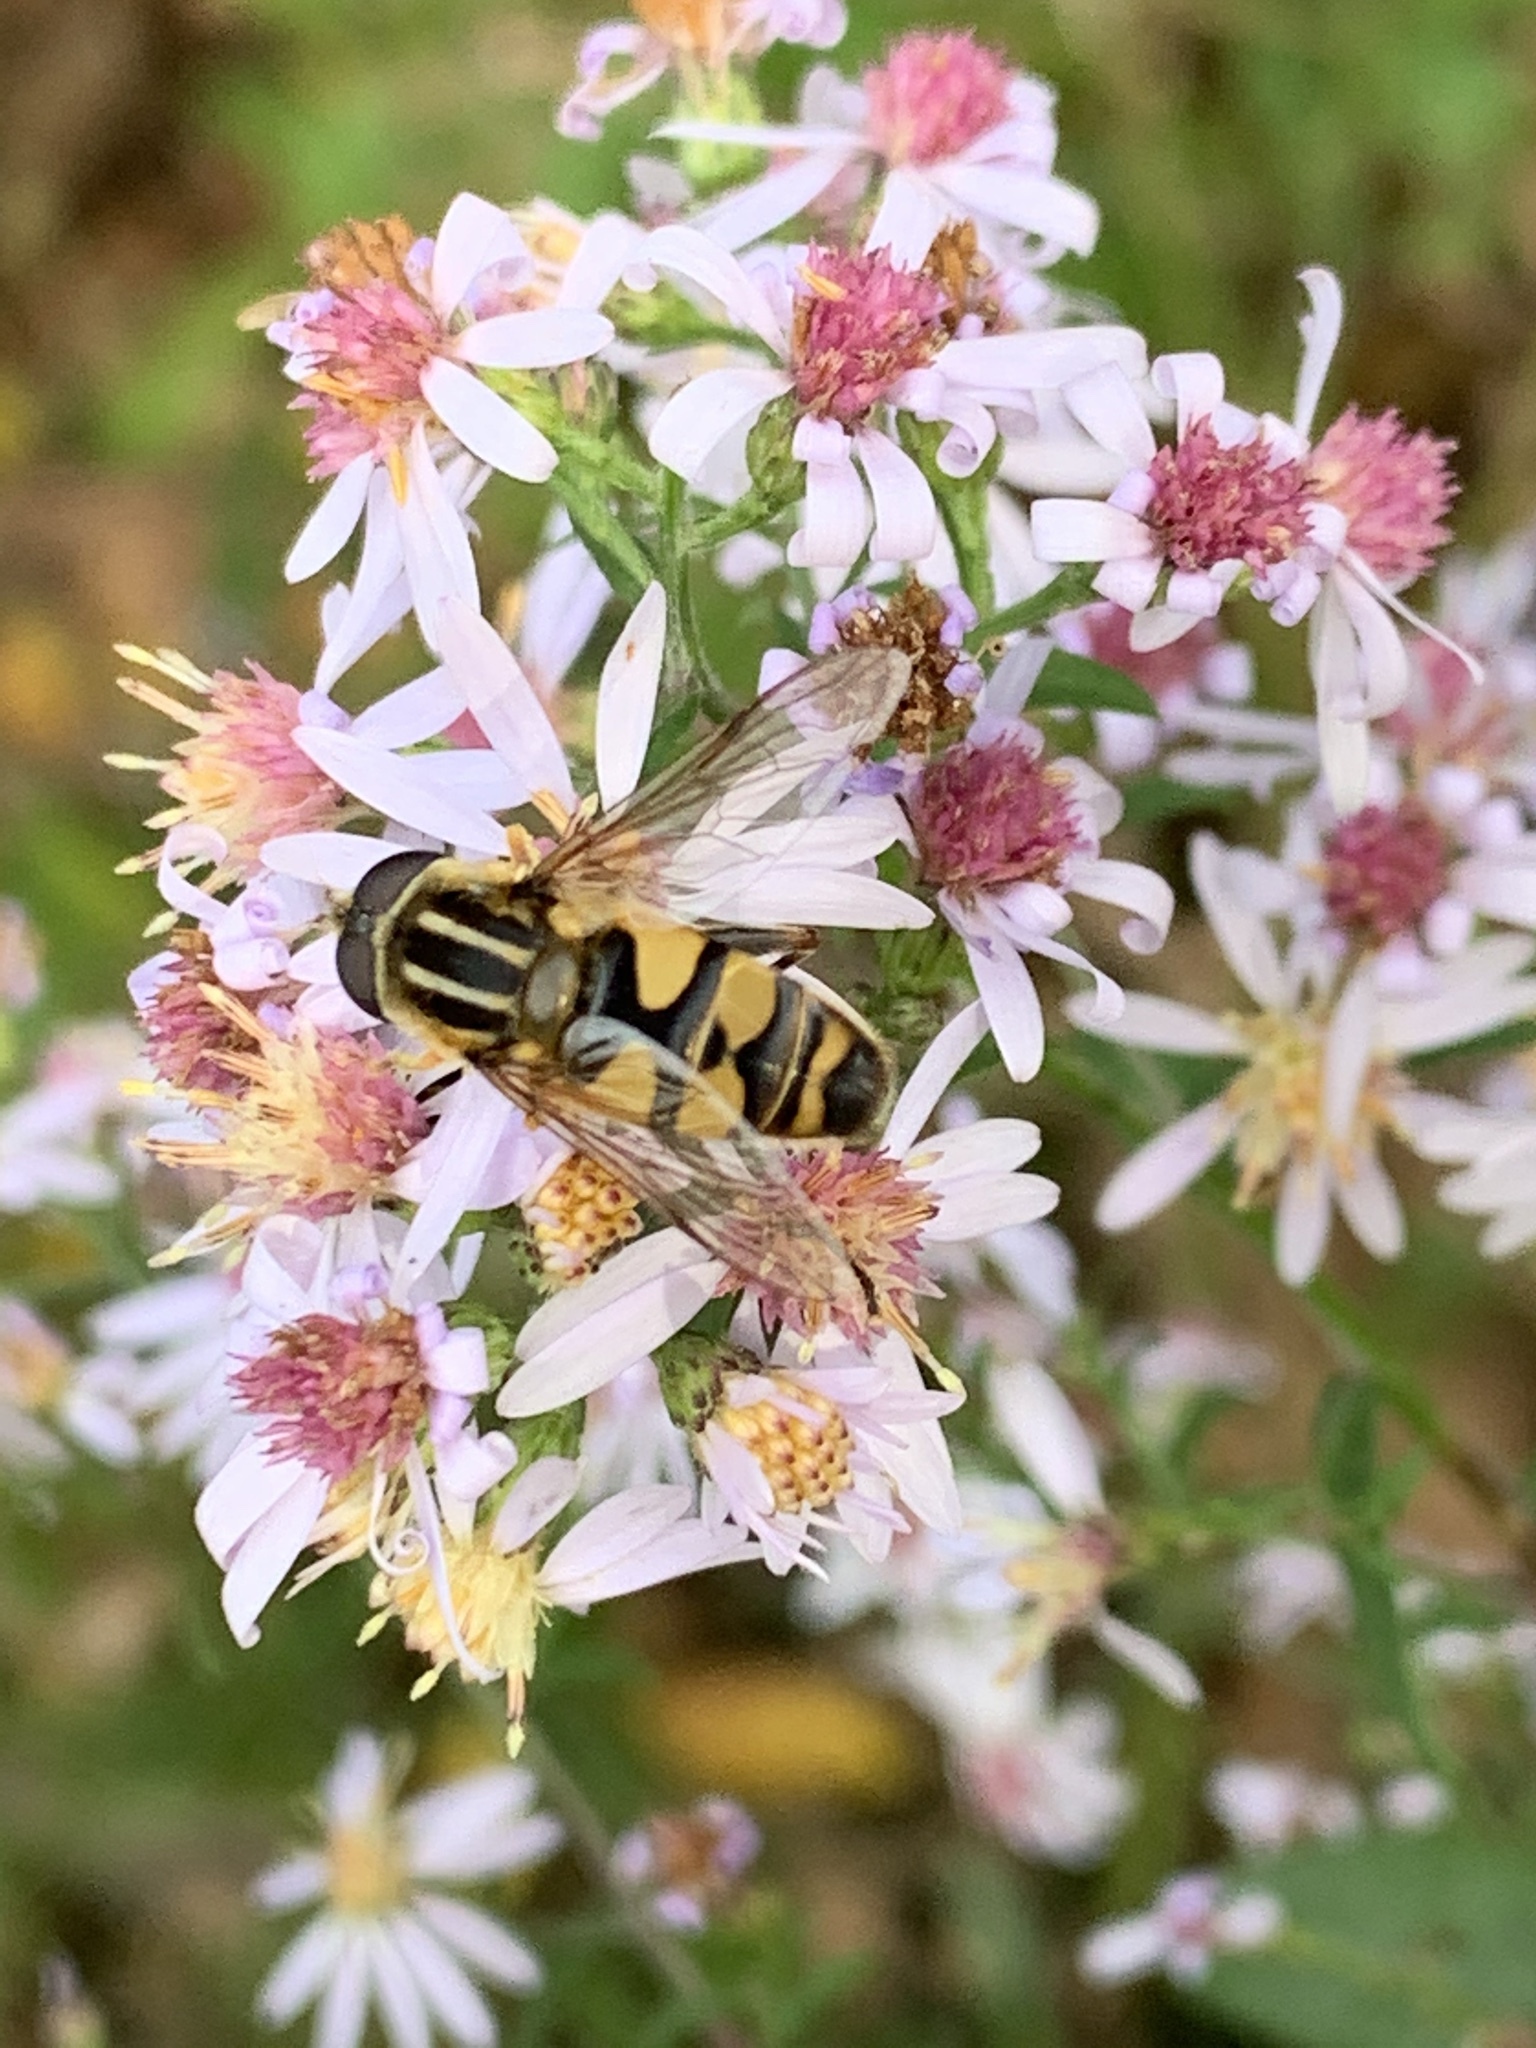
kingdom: Animalia
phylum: Arthropoda
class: Insecta
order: Diptera
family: Syrphidae
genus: Helophilus
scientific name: Helophilus fasciatus
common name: Narrow-headed marsh fly
